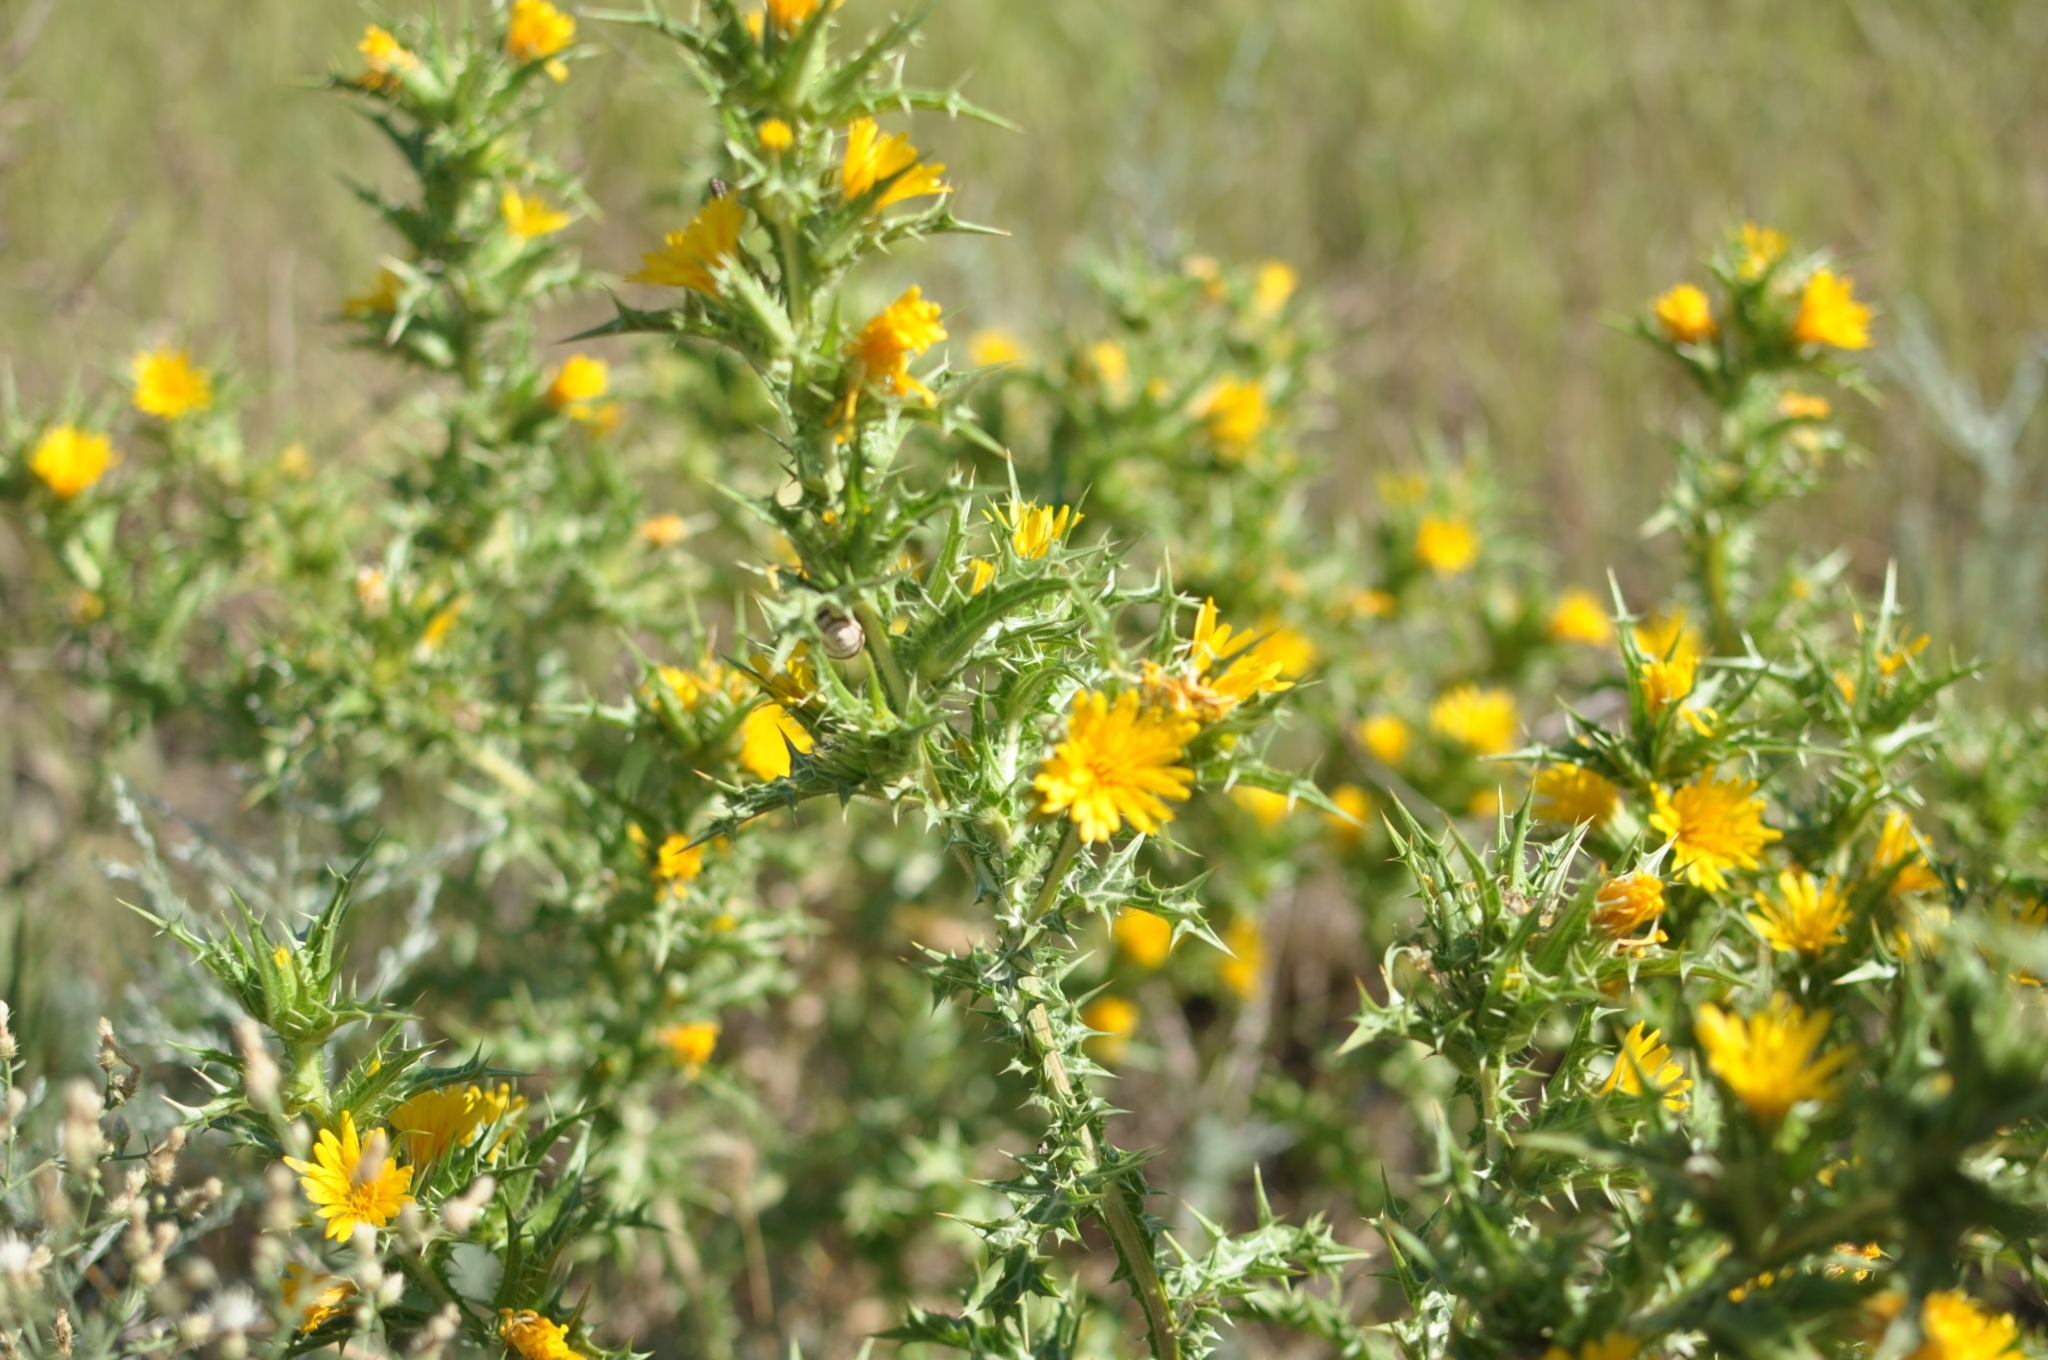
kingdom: Plantae
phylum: Tracheophyta
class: Magnoliopsida
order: Asterales
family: Asteraceae
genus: Scolymus
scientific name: Scolymus hispanicus
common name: Golden thistle
